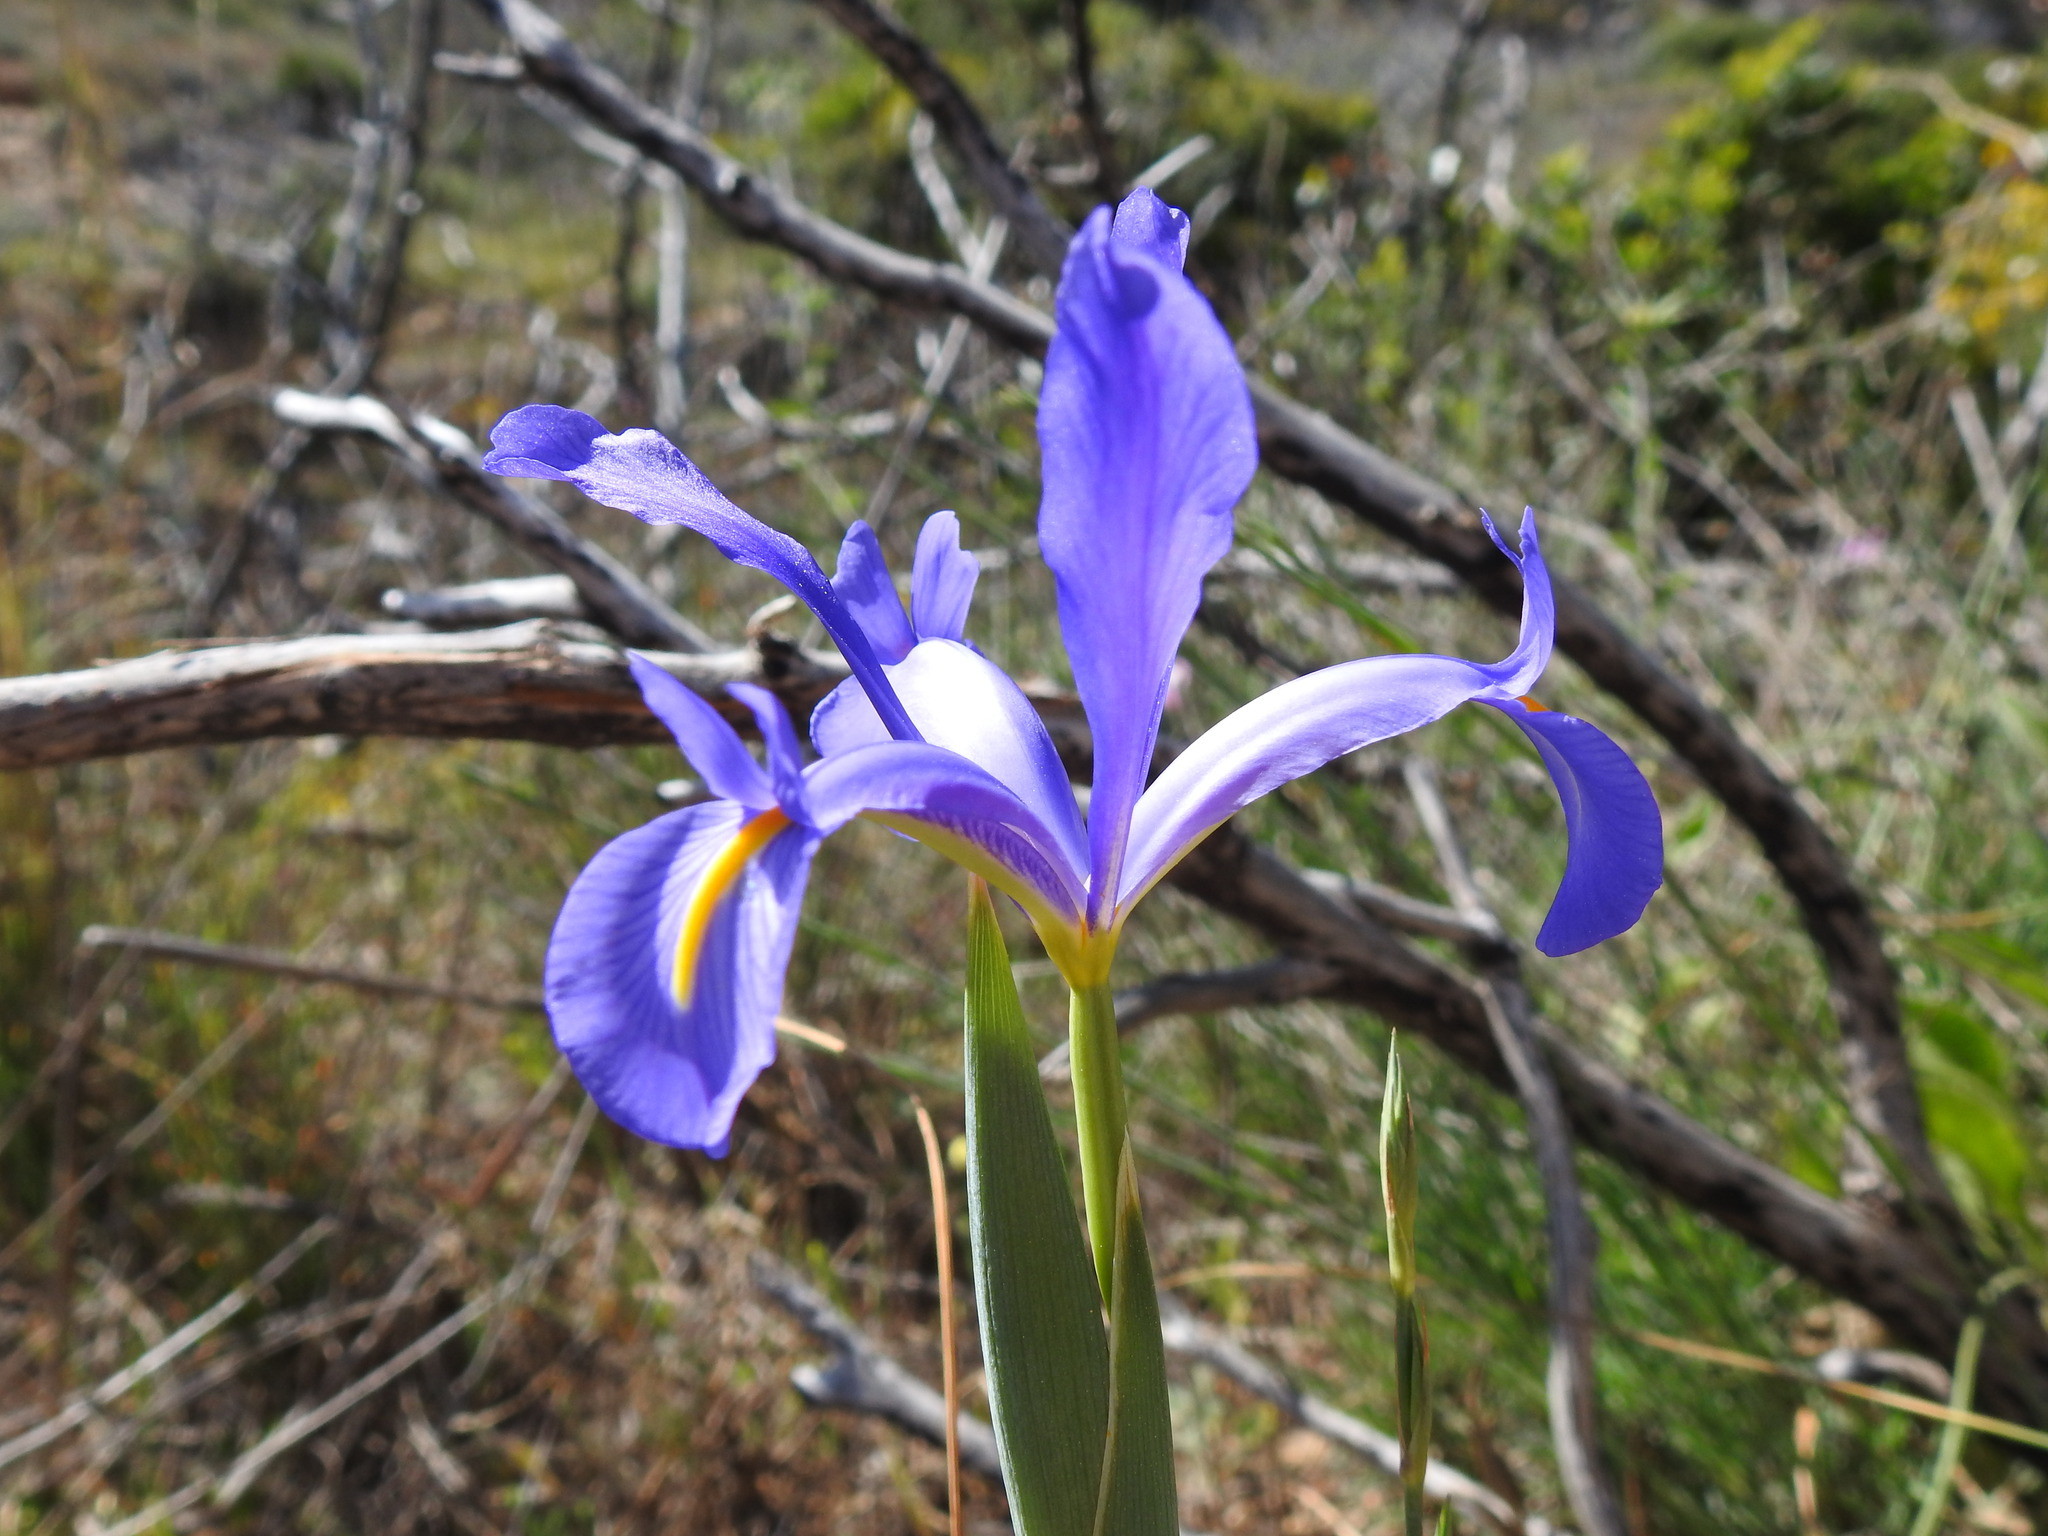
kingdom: Plantae
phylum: Tracheophyta
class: Liliopsida
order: Asparagales
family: Iridaceae
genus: Iris
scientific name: Iris xiphium
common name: Spanish iris
